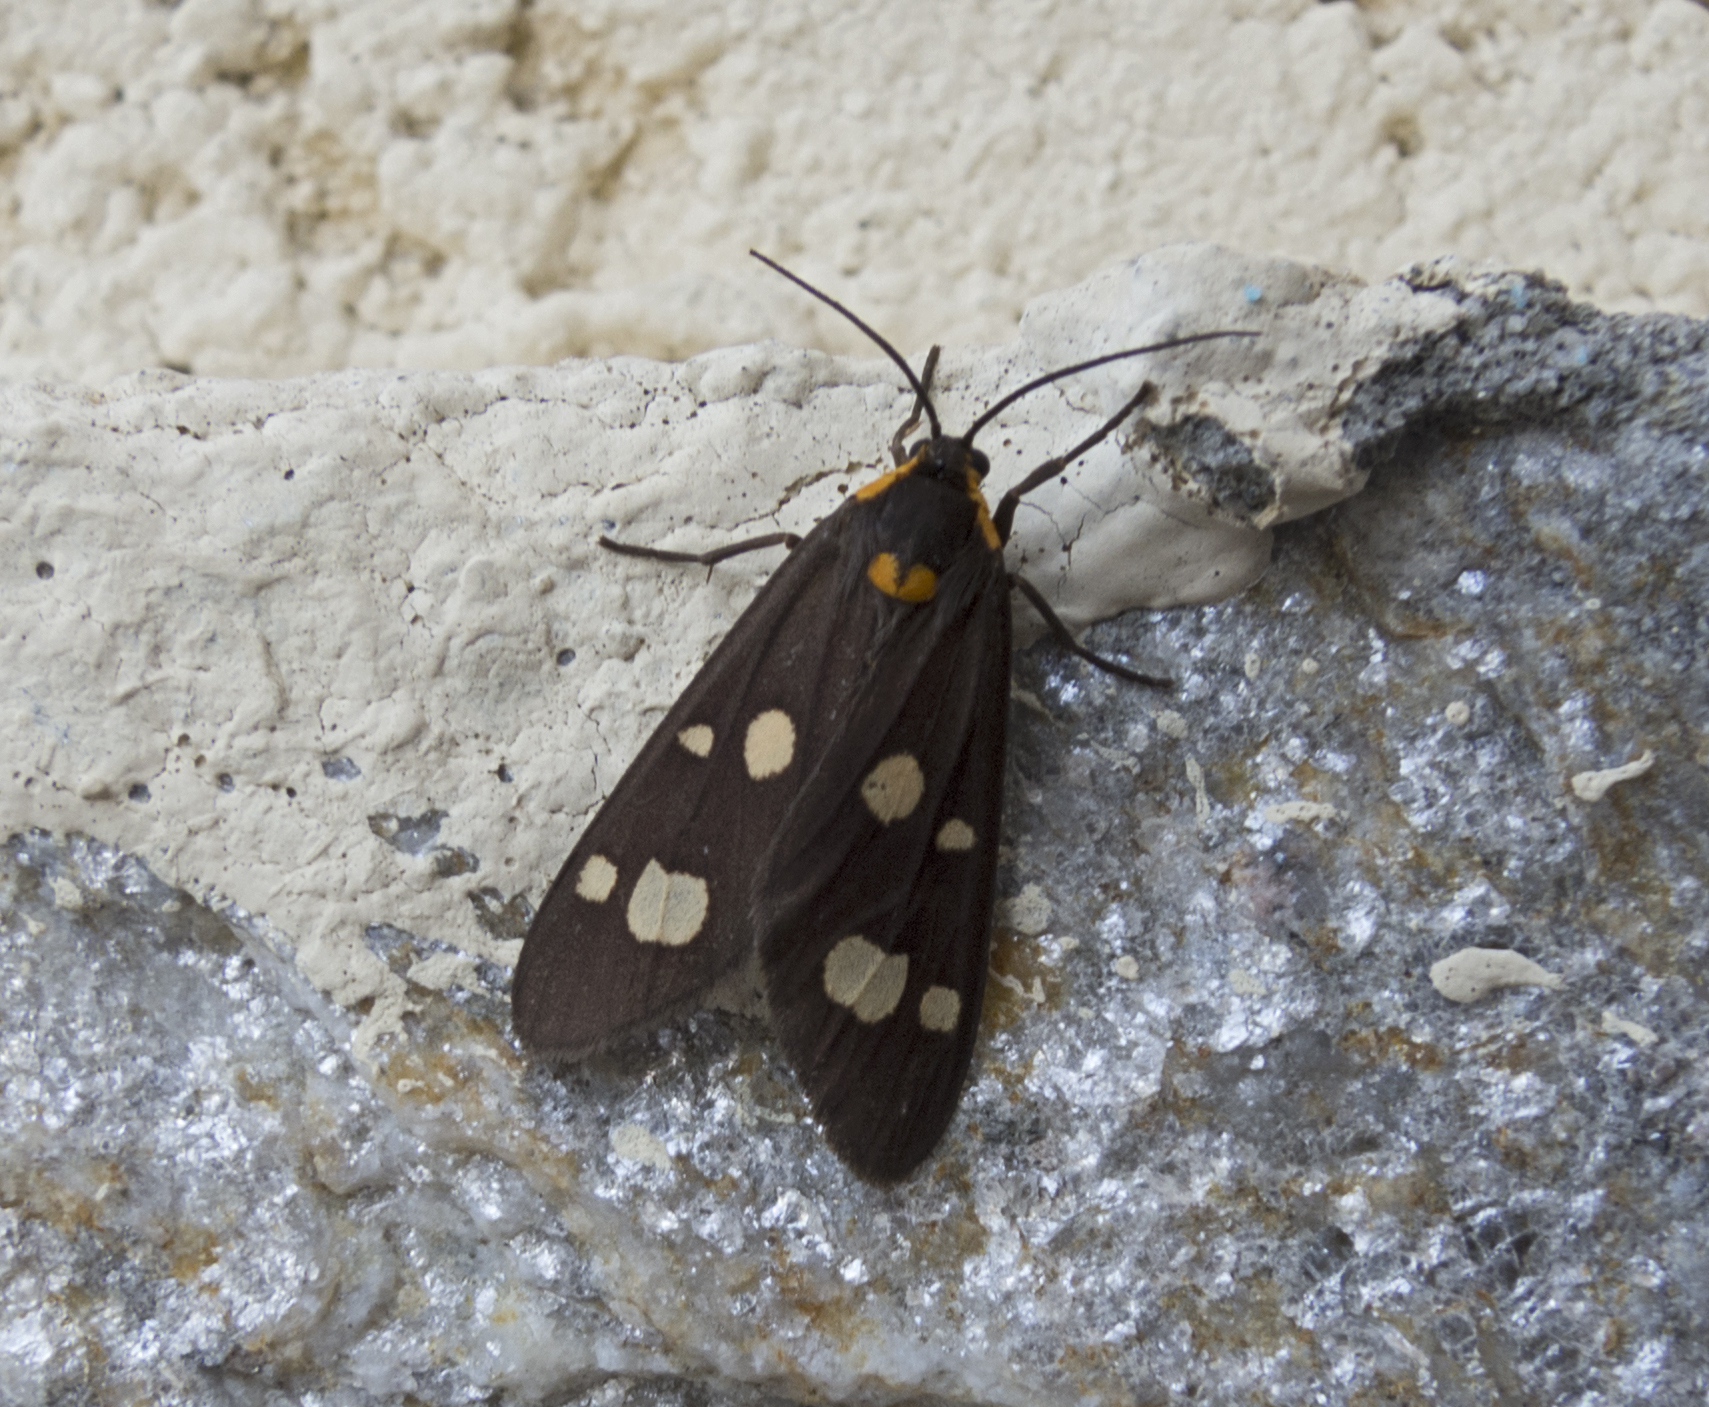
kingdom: Animalia
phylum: Arthropoda
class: Insecta
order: Lepidoptera
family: Erebidae
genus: Dysauxes
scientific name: Dysauxes punctata
